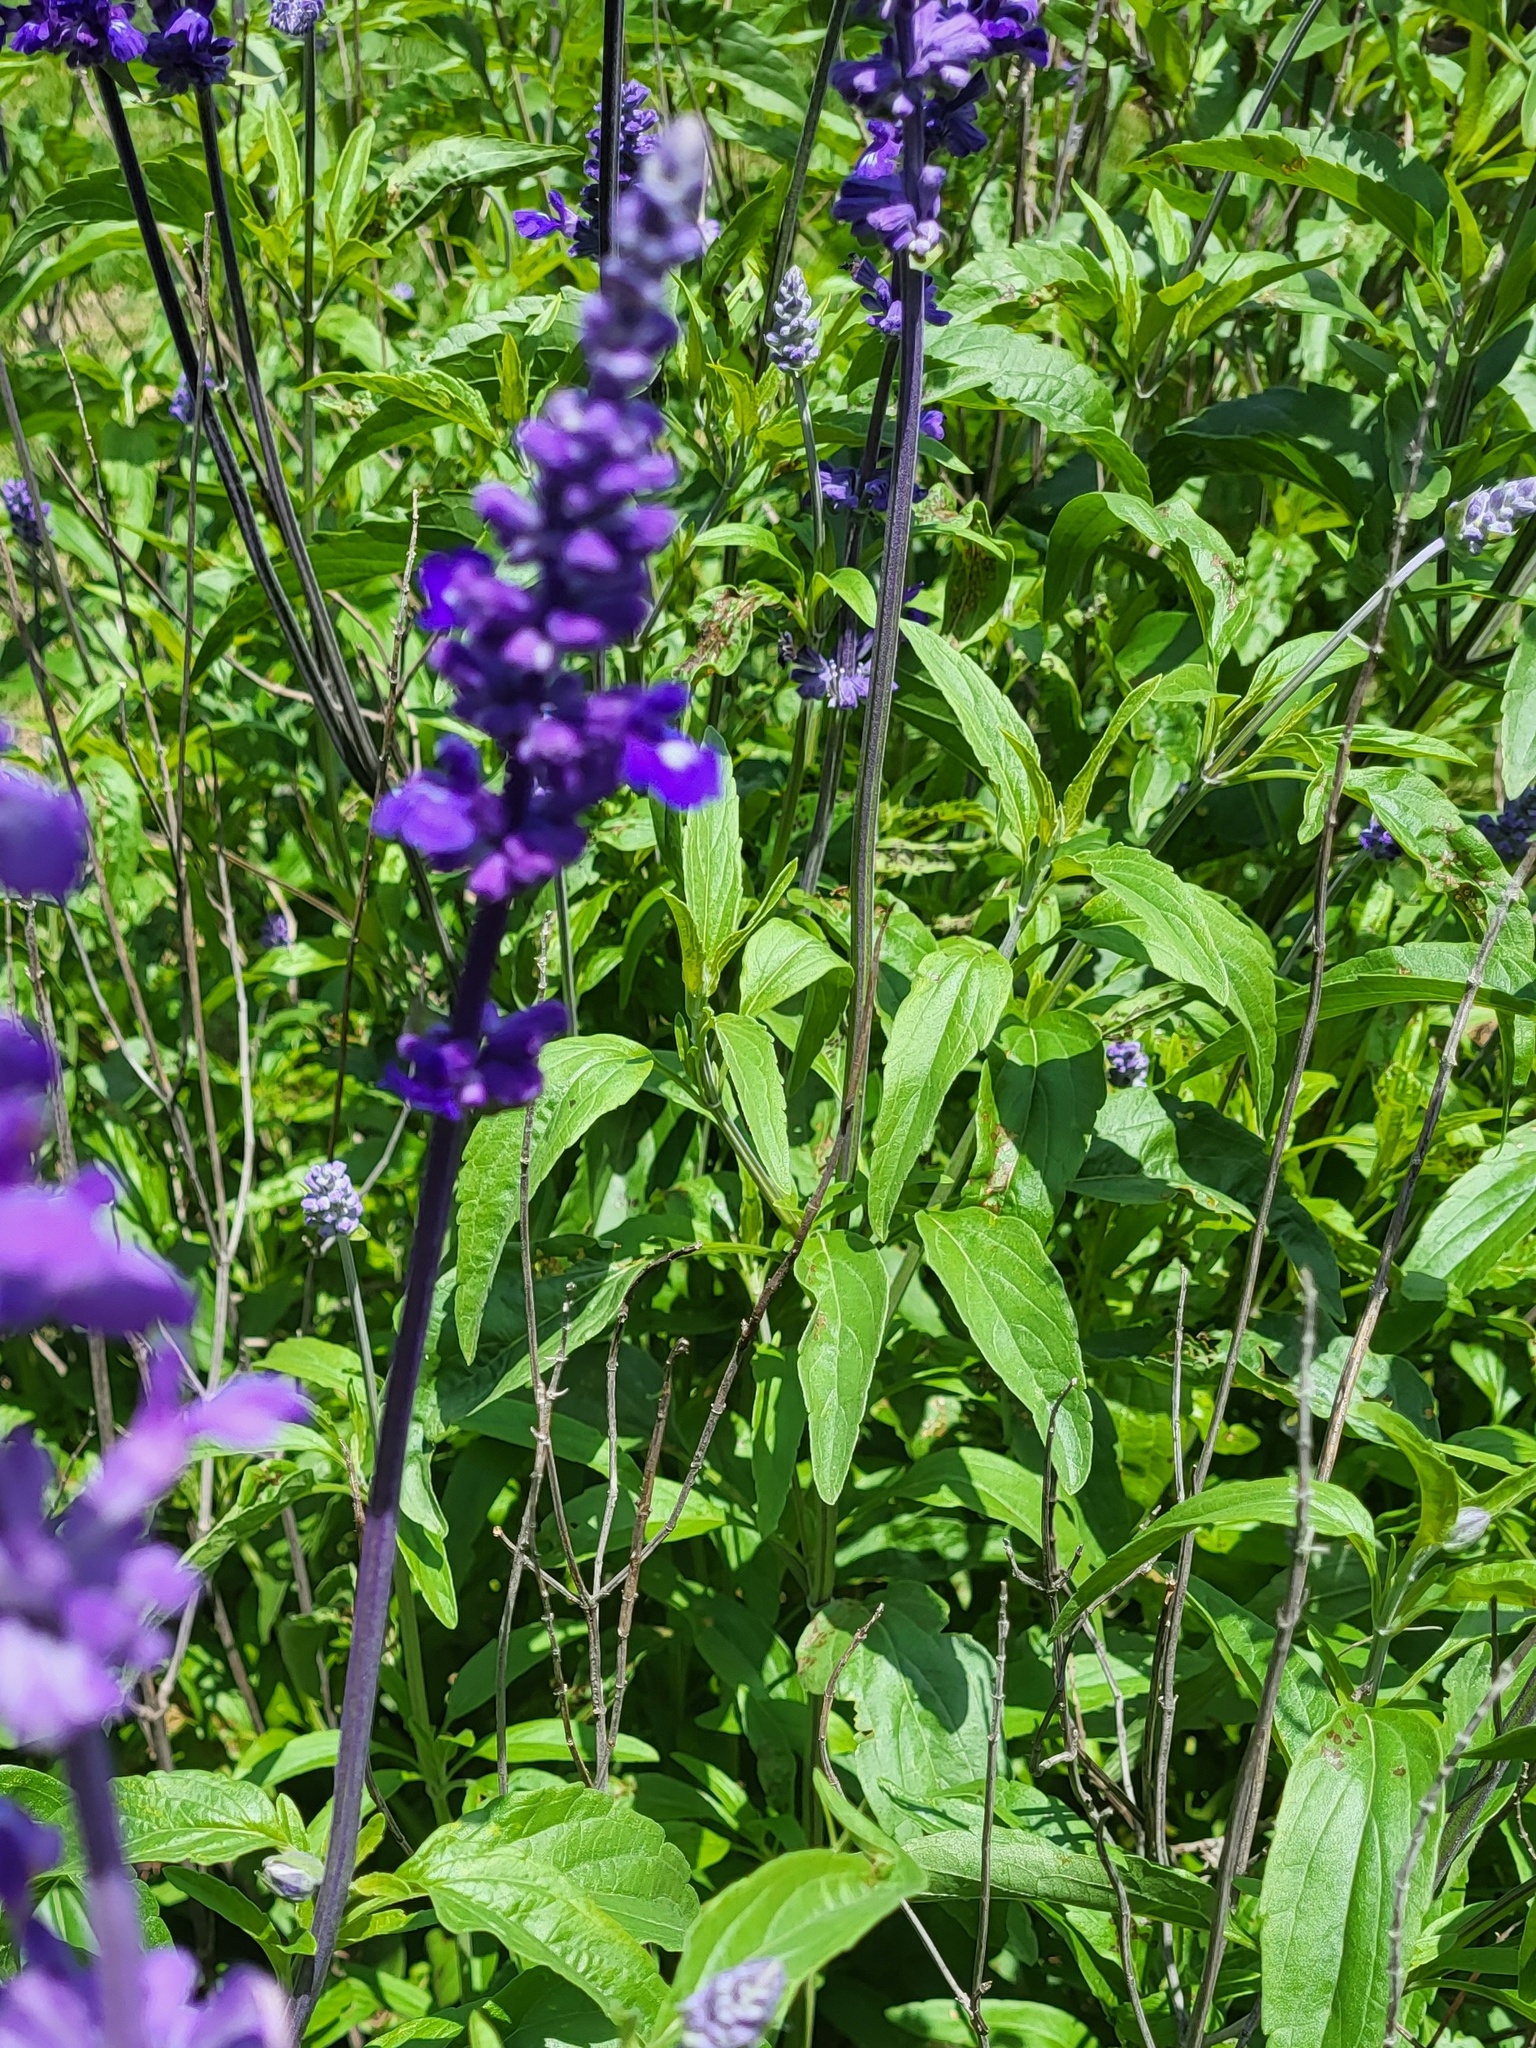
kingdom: Plantae
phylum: Tracheophyta
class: Magnoliopsida
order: Lamiales
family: Lamiaceae
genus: Salvia
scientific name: Salvia farinacea
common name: Mealy sage
